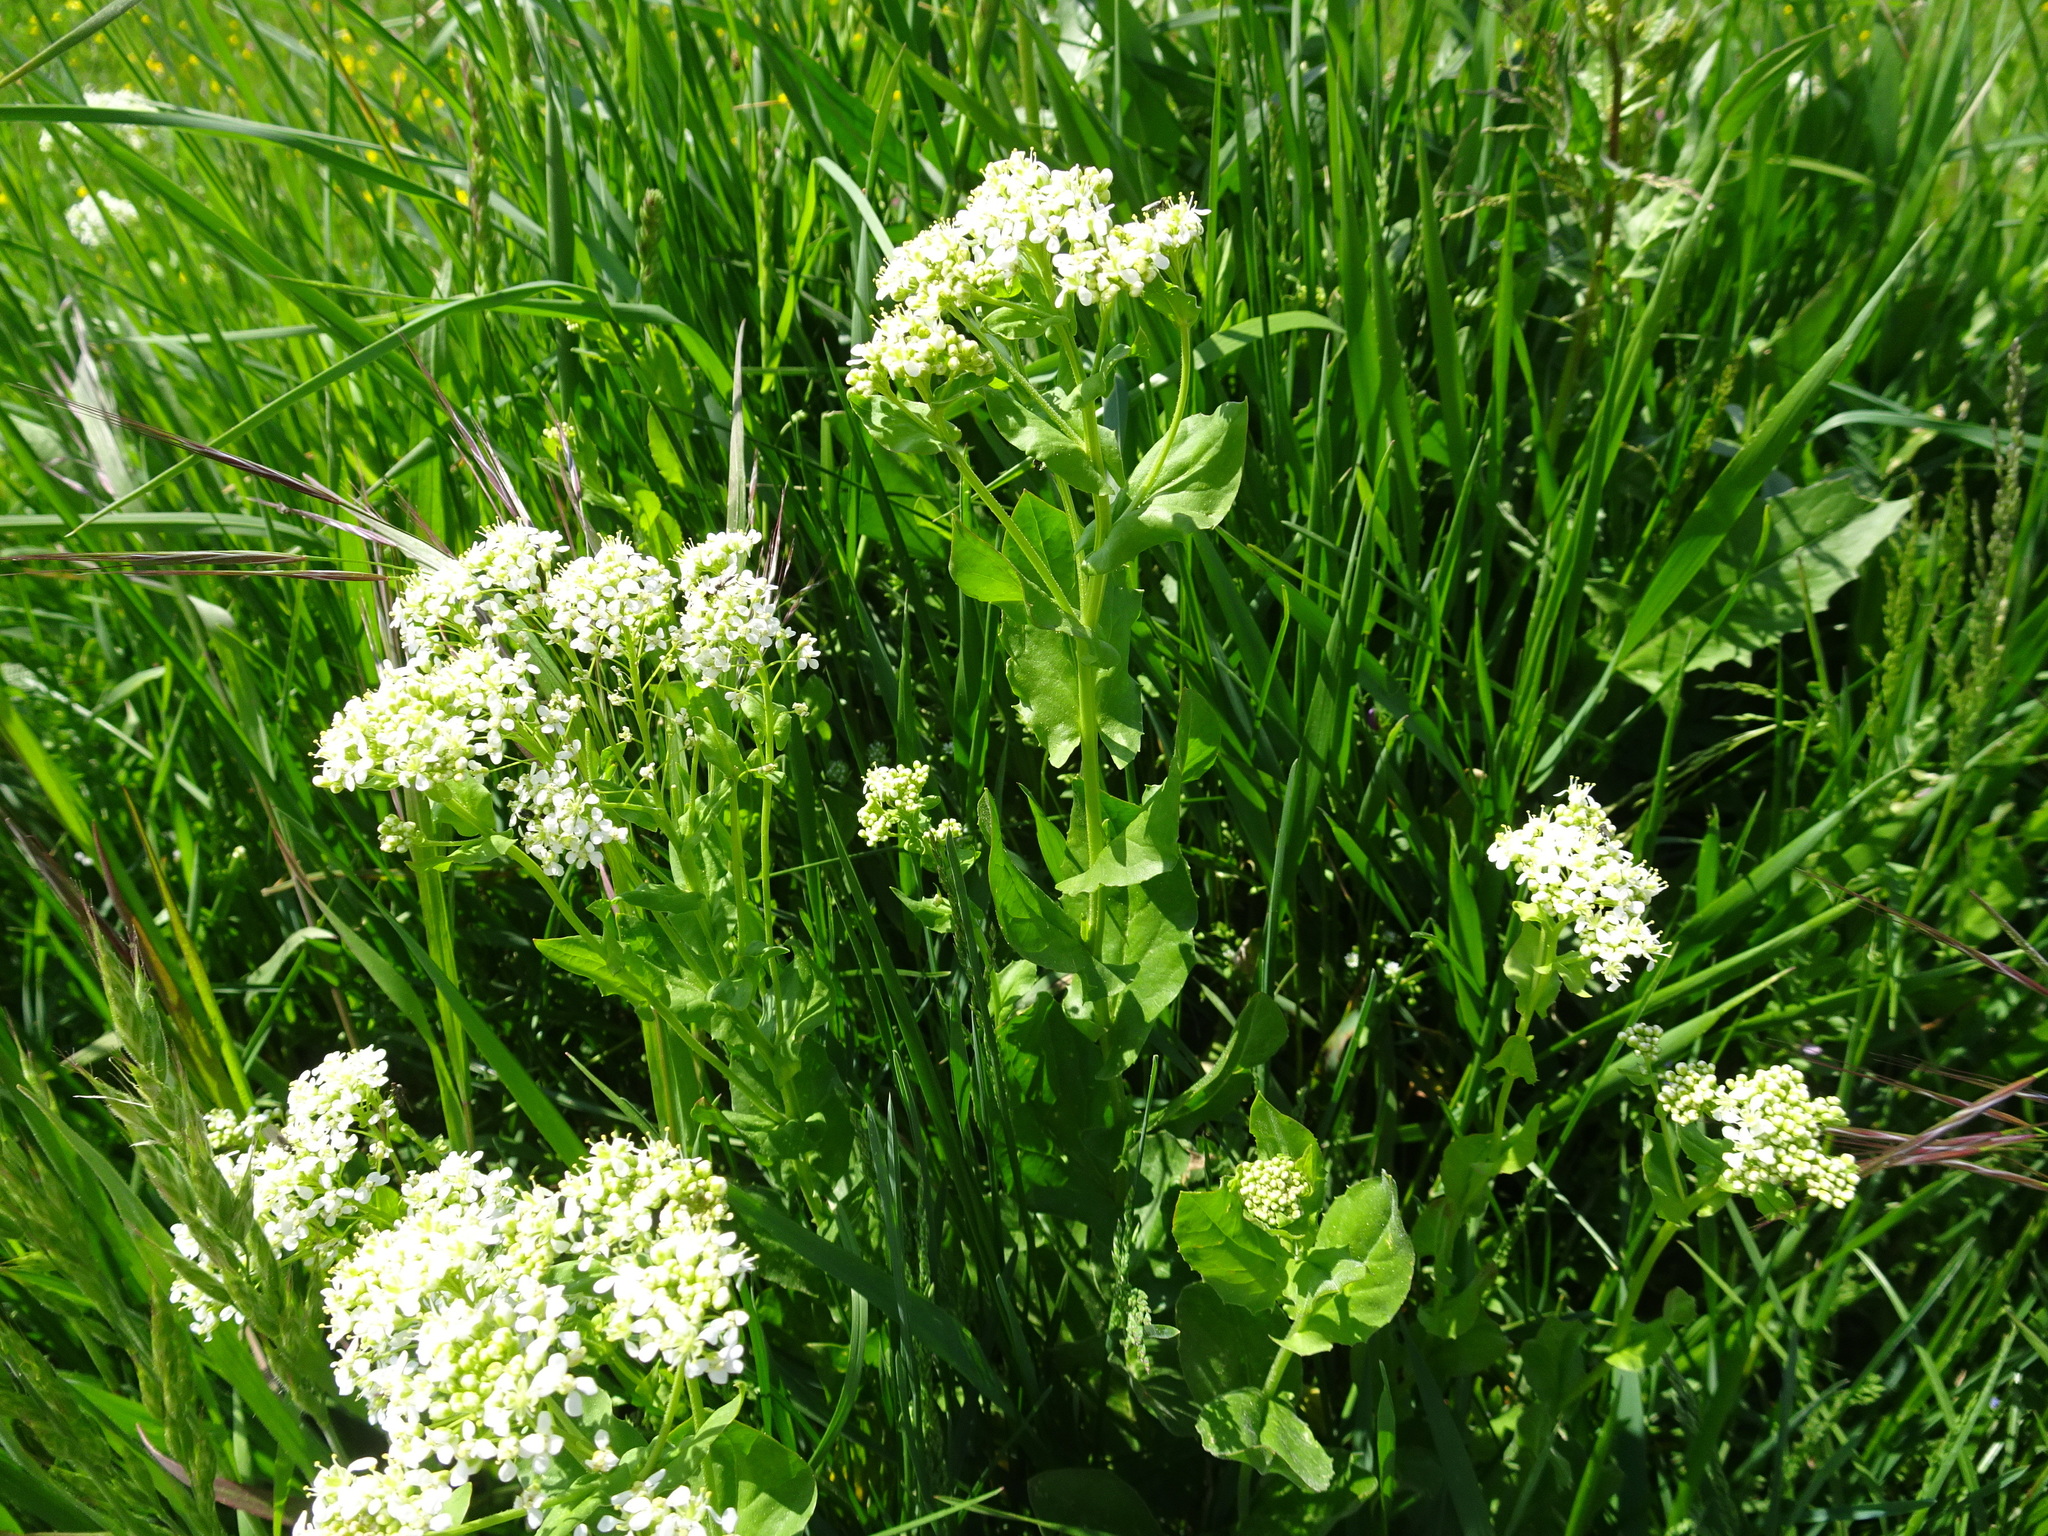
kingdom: Plantae
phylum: Tracheophyta
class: Magnoliopsida
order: Brassicales
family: Brassicaceae
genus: Lepidium
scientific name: Lepidium draba
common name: Hoary cress
